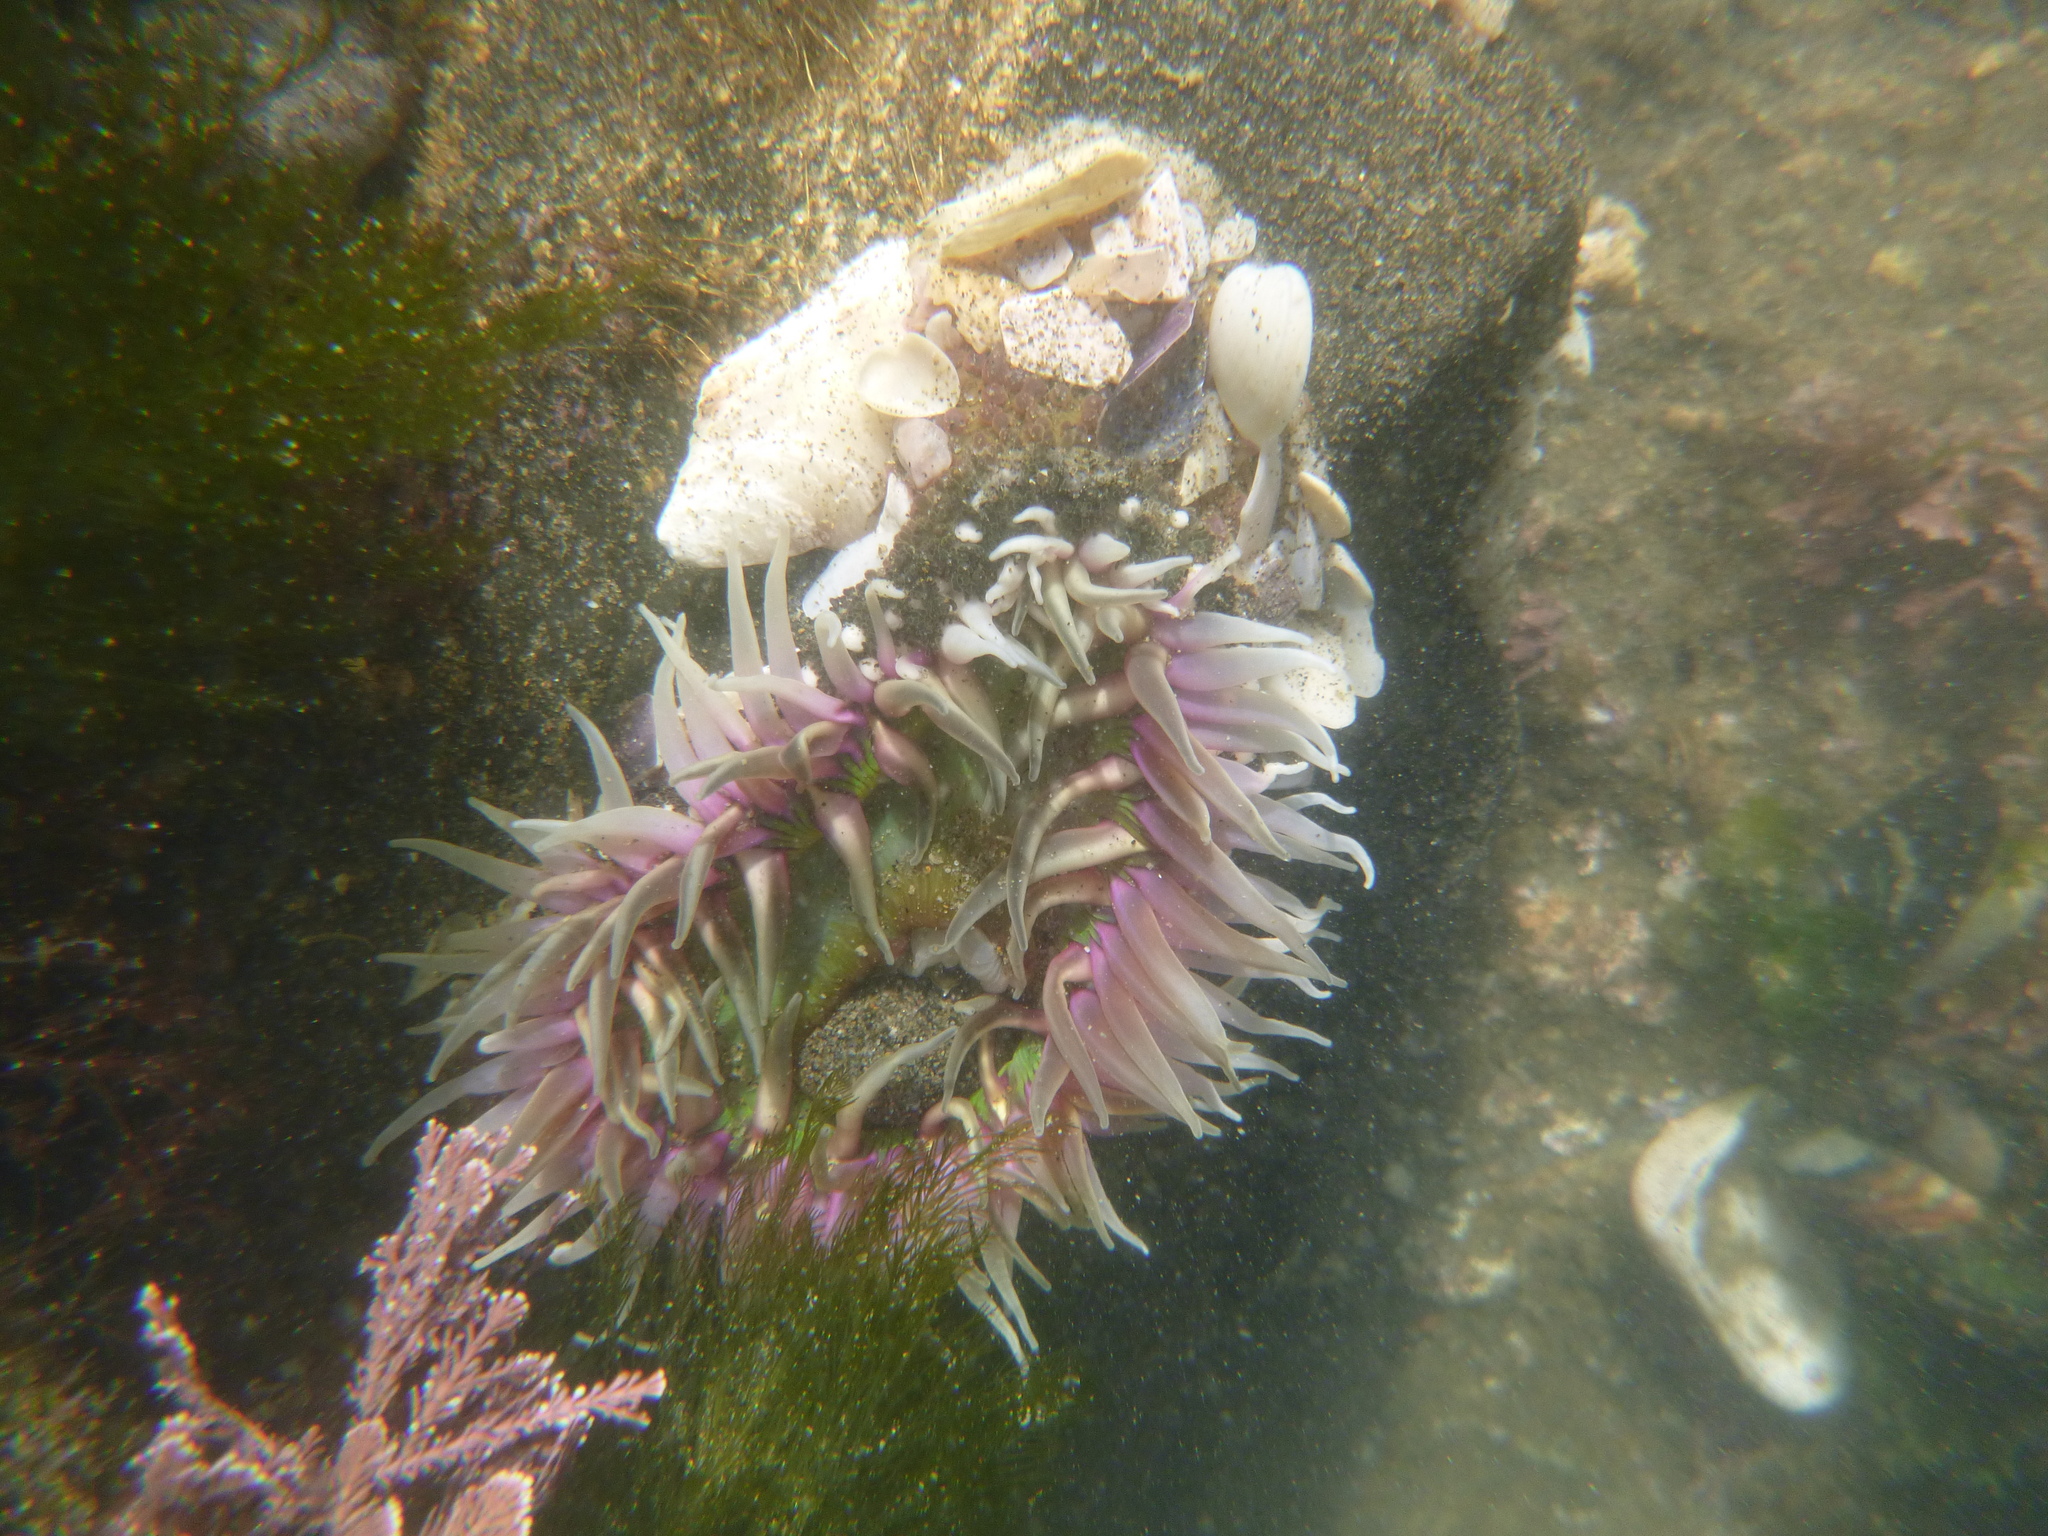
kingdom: Animalia
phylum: Cnidaria
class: Anthozoa
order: Actiniaria
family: Actiniidae
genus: Oulactis
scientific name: Oulactis magna
